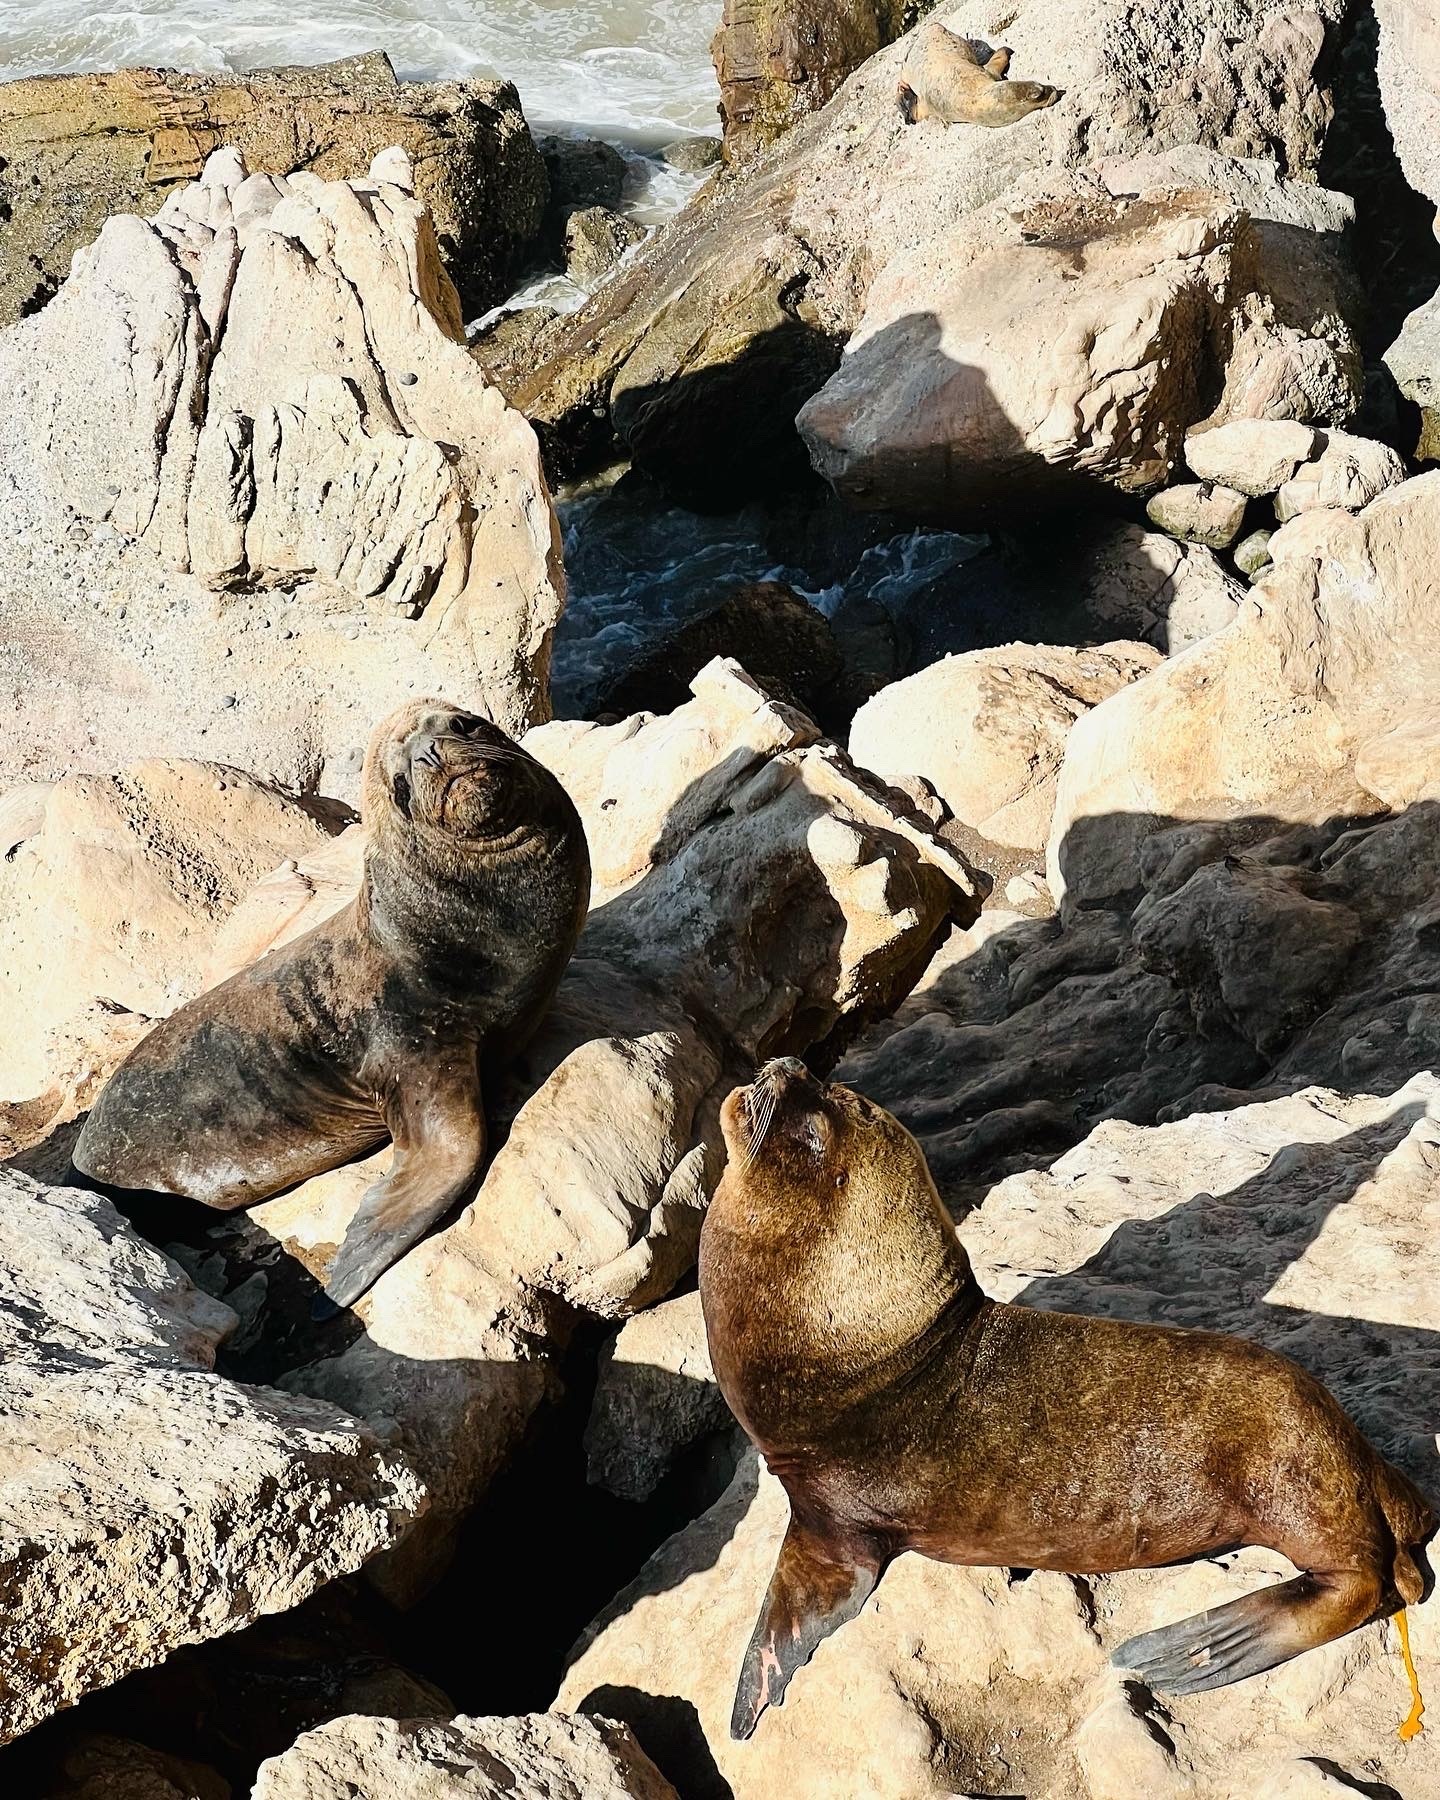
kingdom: Animalia
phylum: Chordata
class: Mammalia
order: Carnivora
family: Otariidae
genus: Otaria
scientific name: Otaria byronia
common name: South american sea lion
